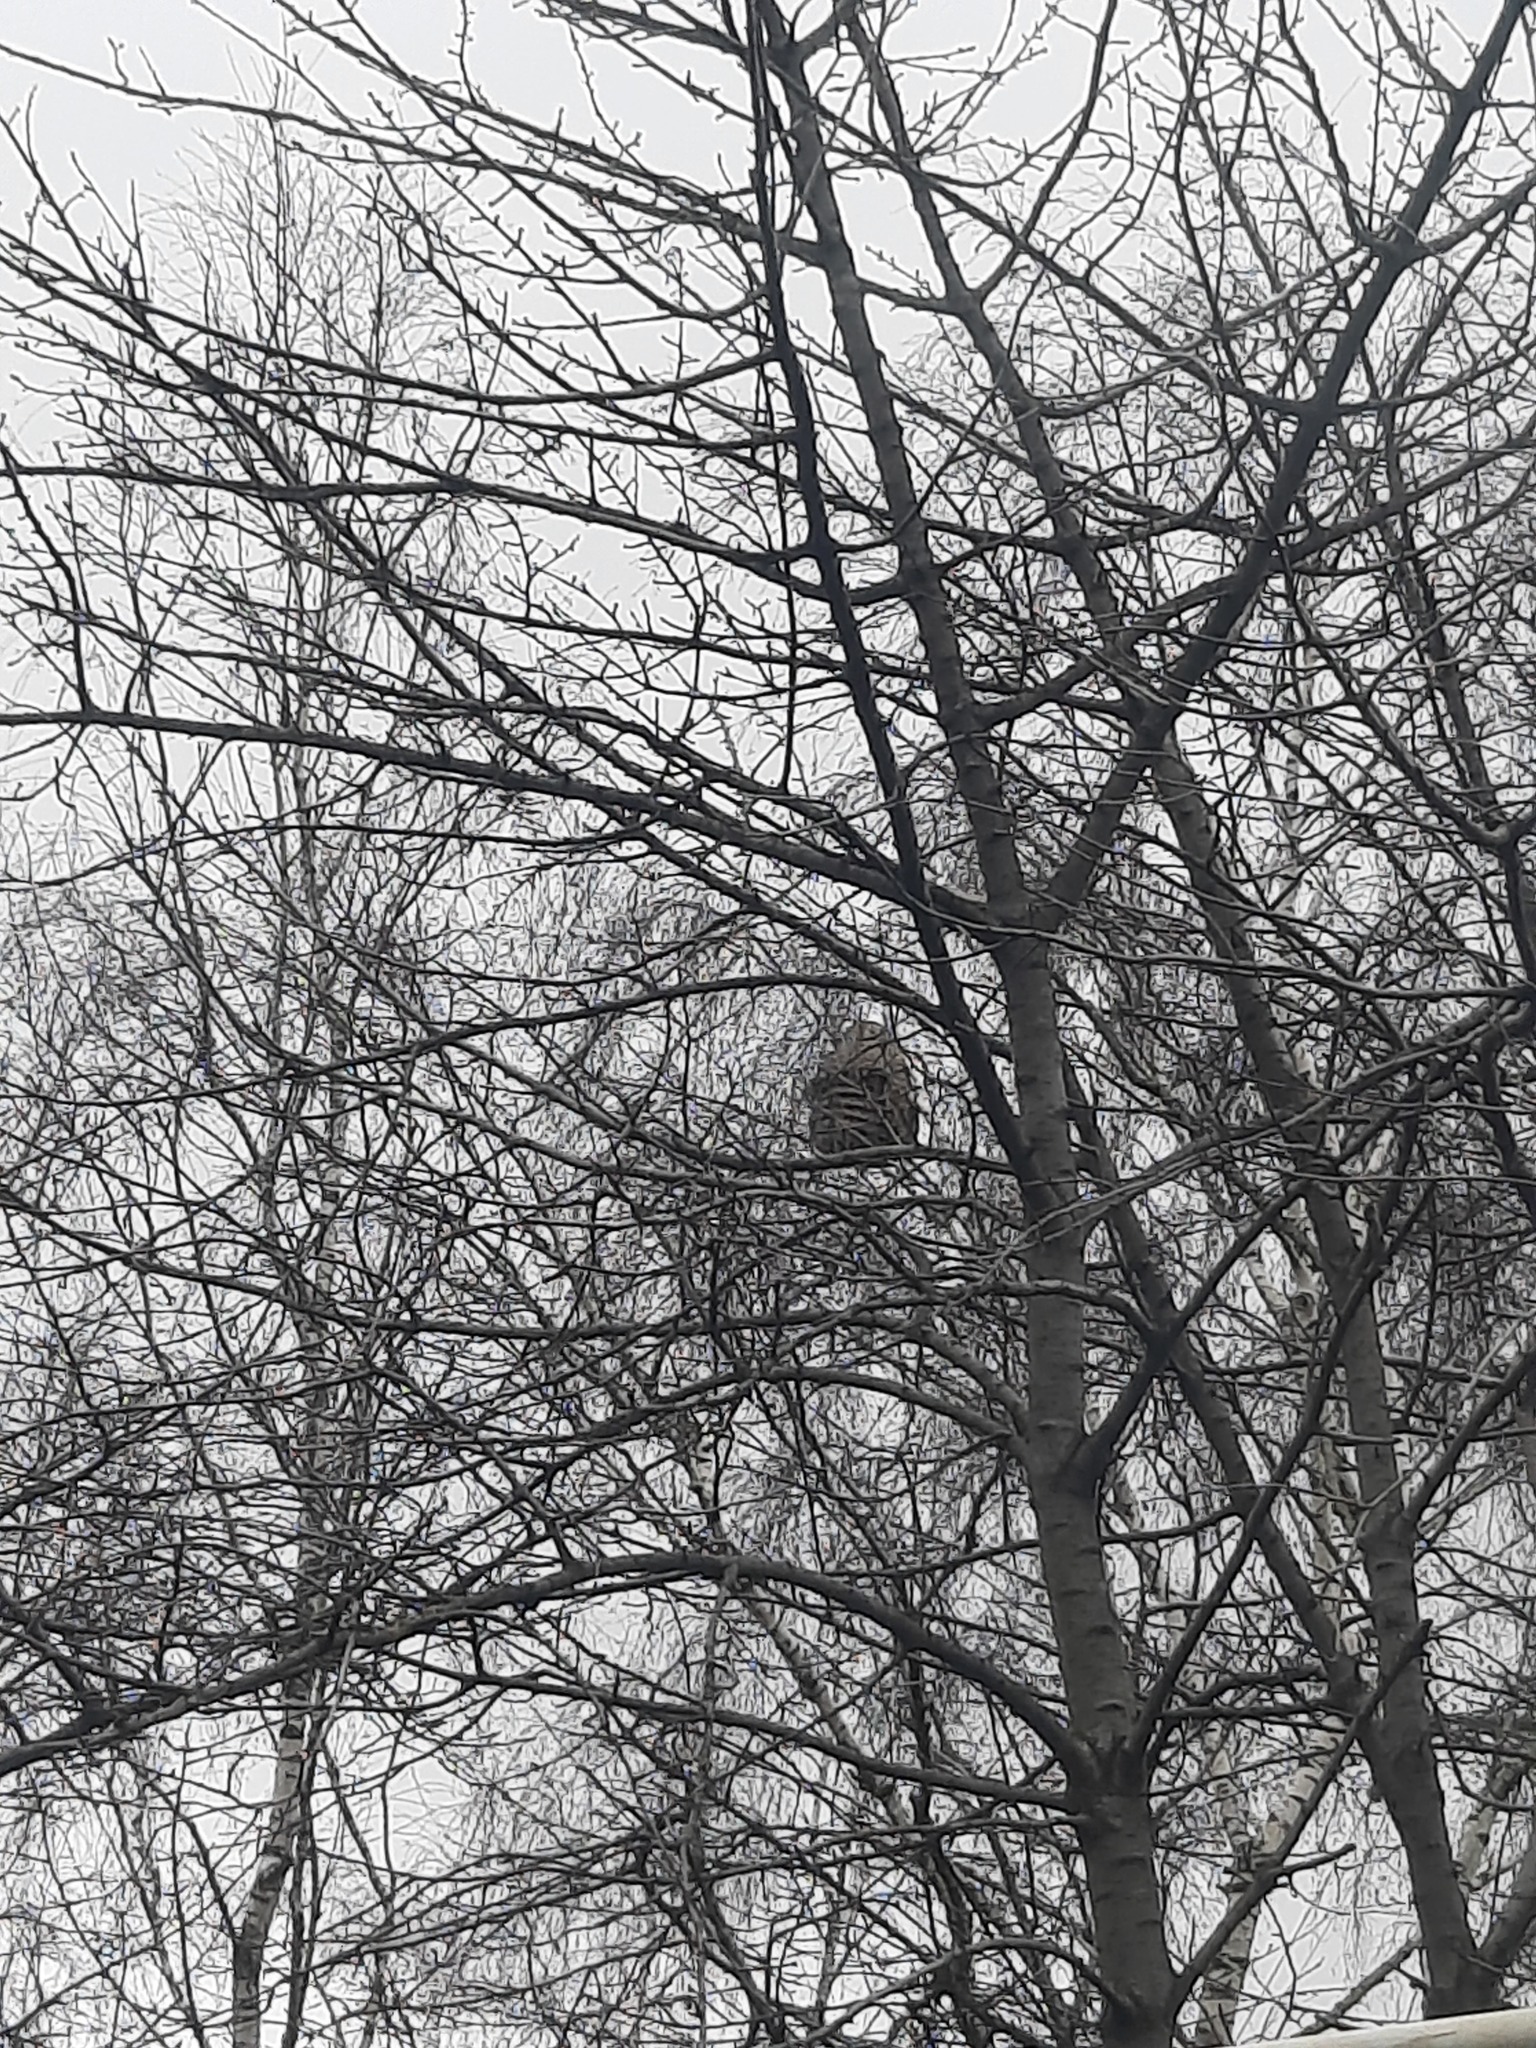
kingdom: Animalia
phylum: Arthropoda
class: Insecta
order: Hymenoptera
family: Vespidae
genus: Vespa
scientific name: Vespa velutina
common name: Asian hornet
